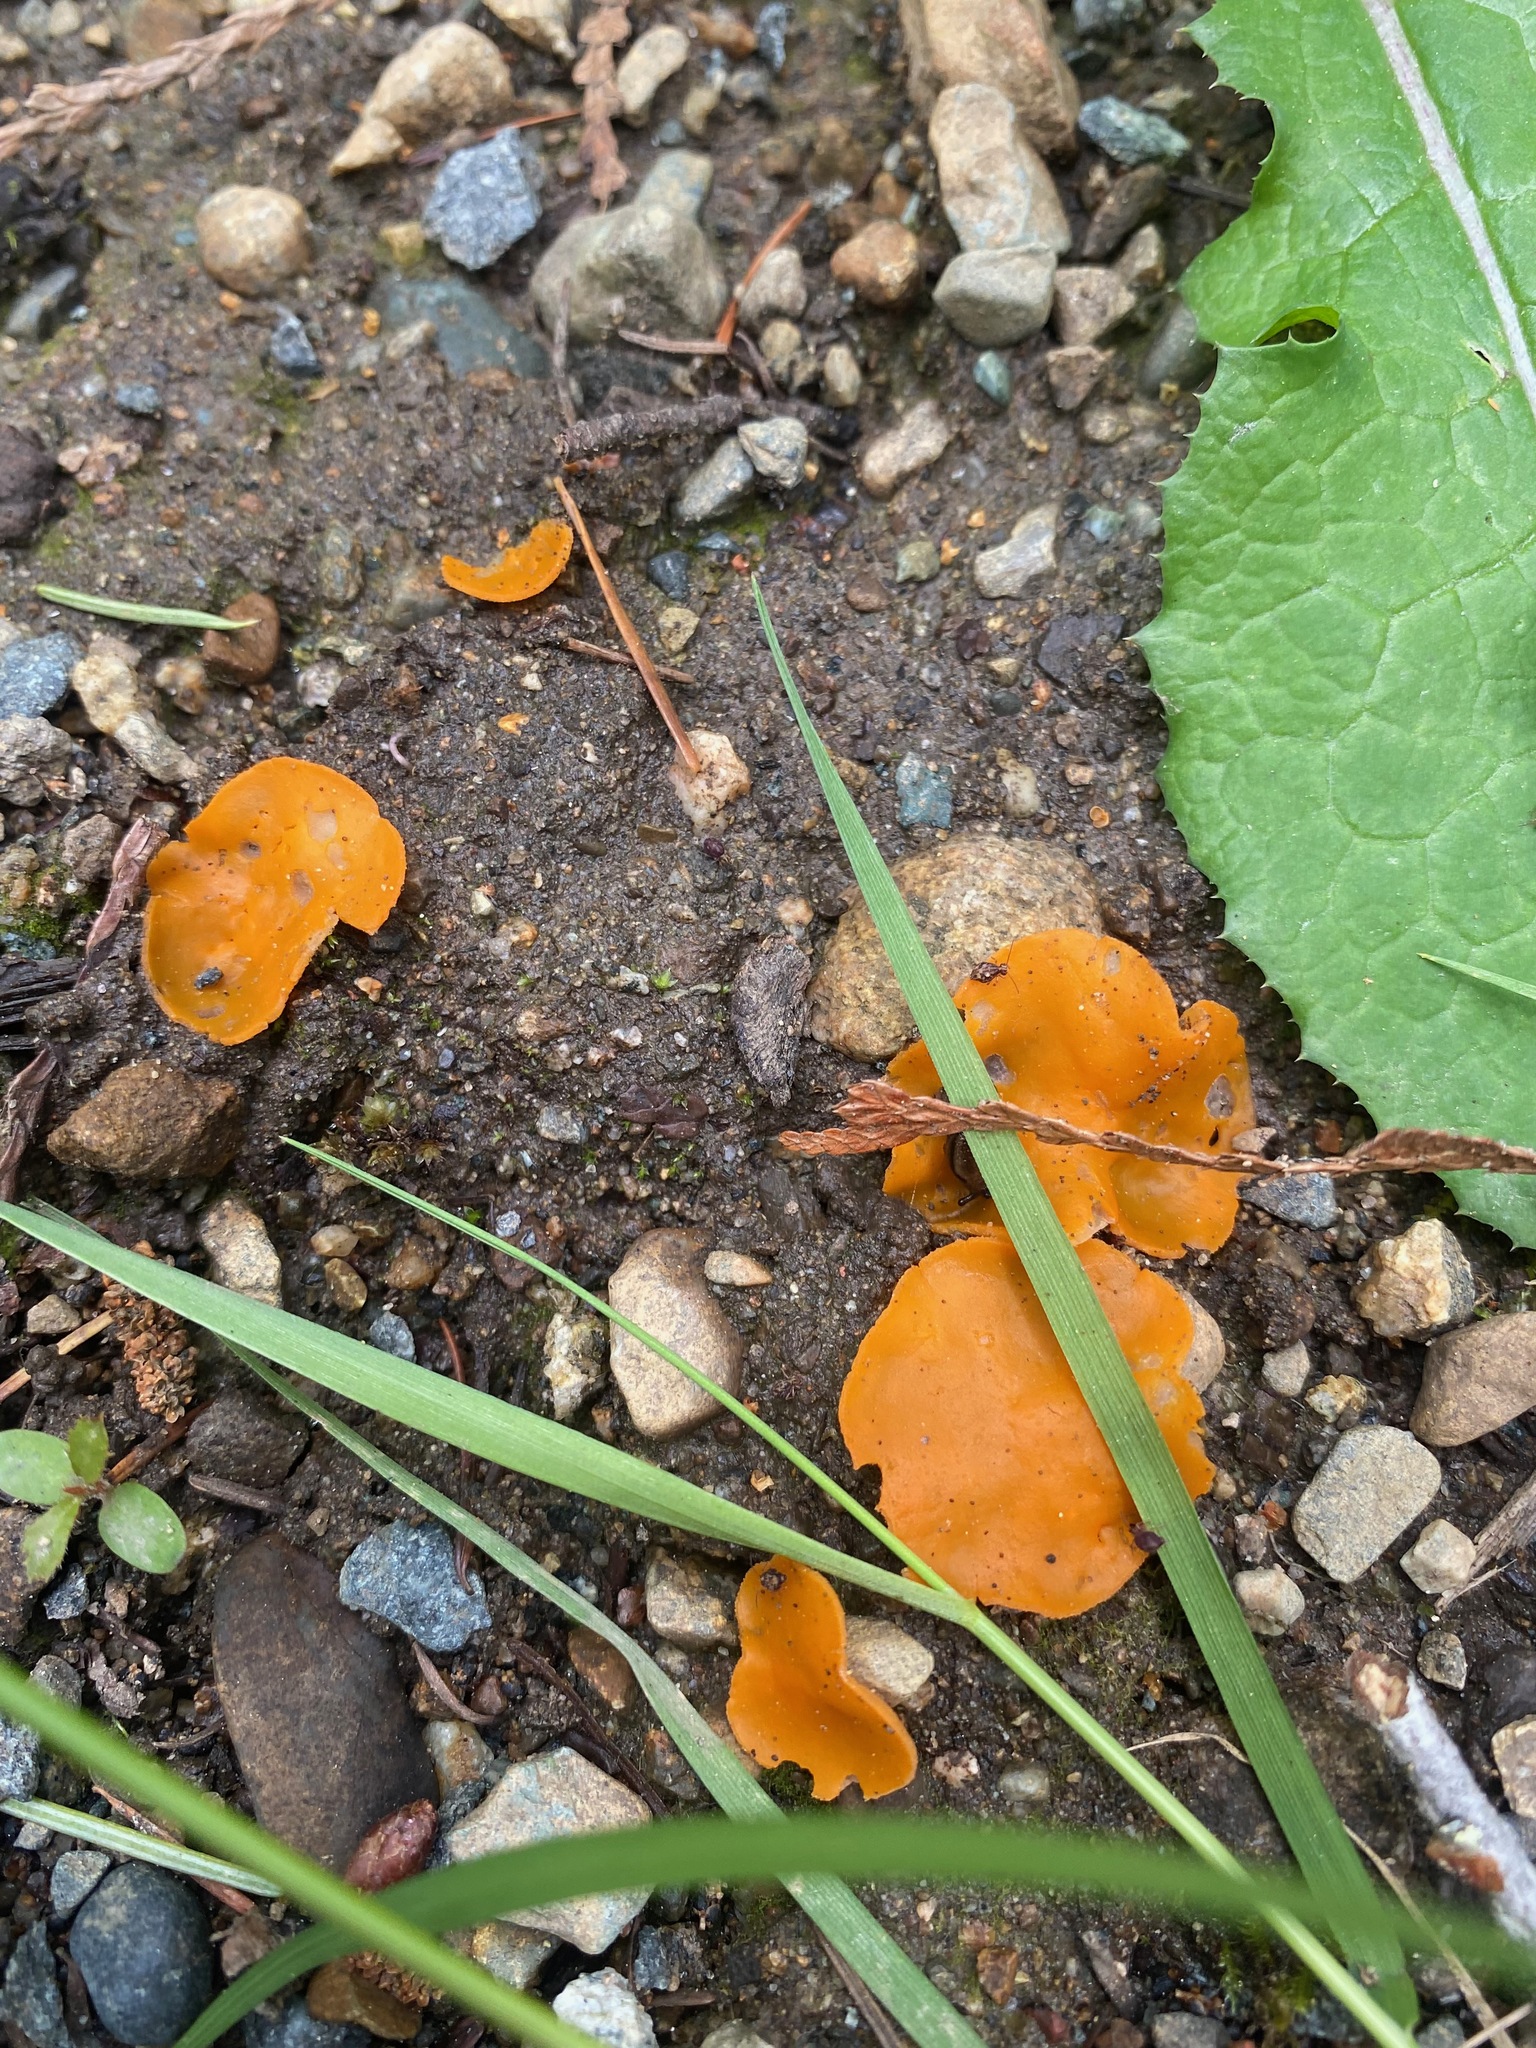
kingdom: Fungi
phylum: Ascomycota
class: Pezizomycetes
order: Pezizales
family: Pyronemataceae
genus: Aleuria
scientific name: Aleuria aurantia
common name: Orange peel fungus
